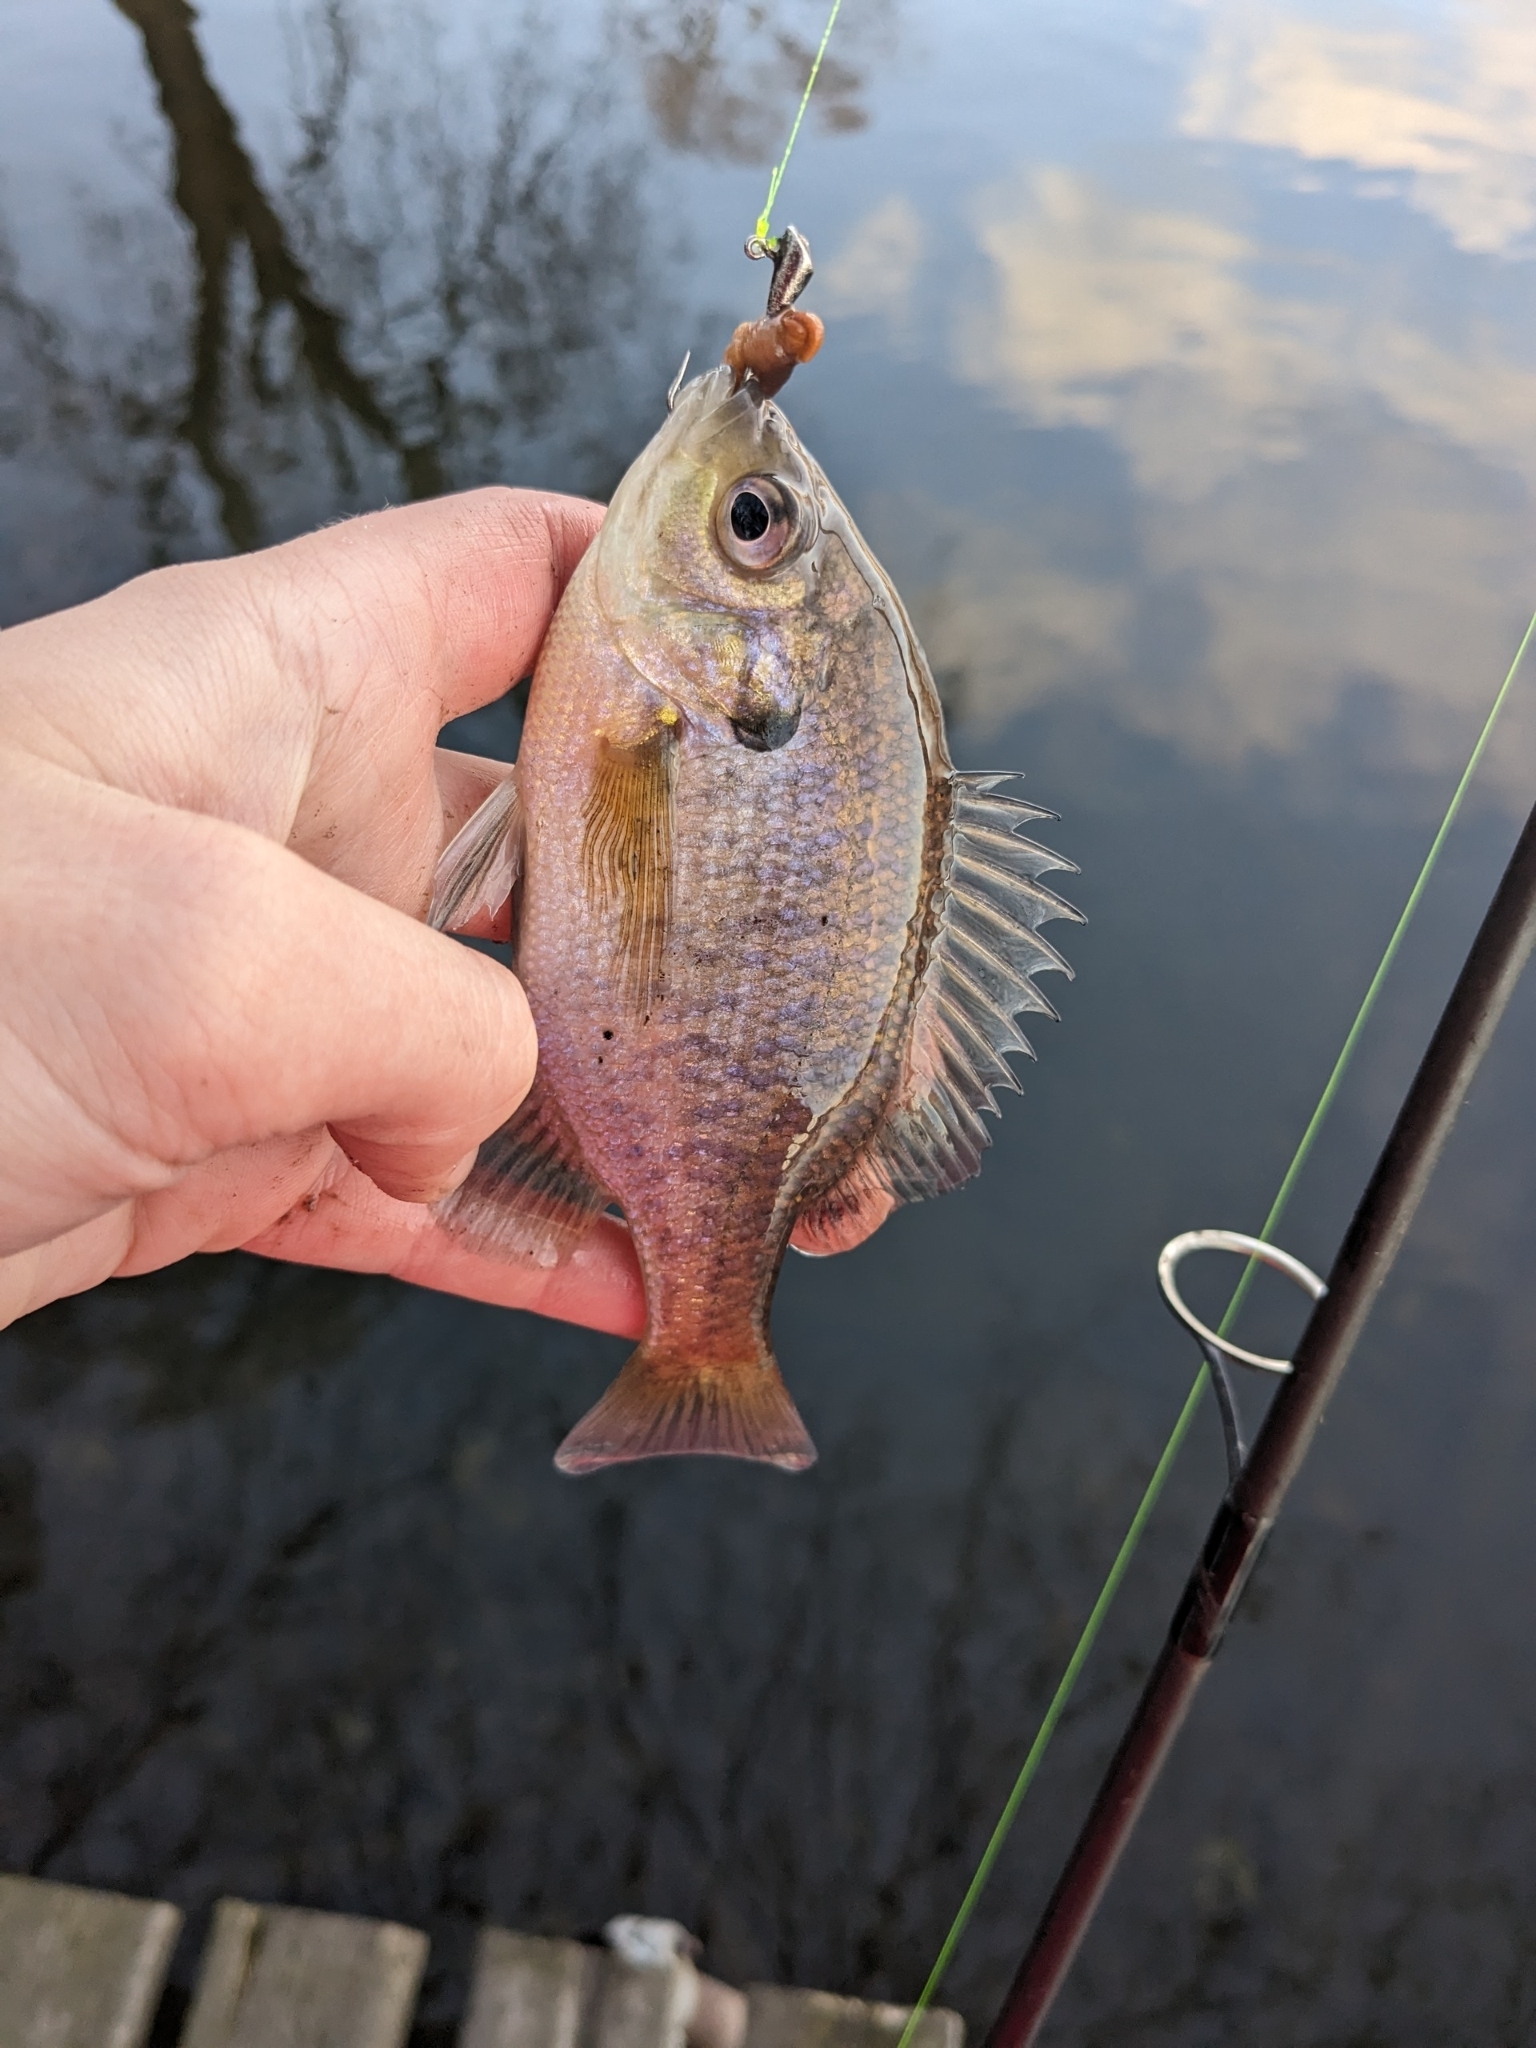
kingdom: Animalia
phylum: Chordata
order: Perciformes
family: Centrarchidae
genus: Lepomis
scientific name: Lepomis macrochirus
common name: Bluegill
